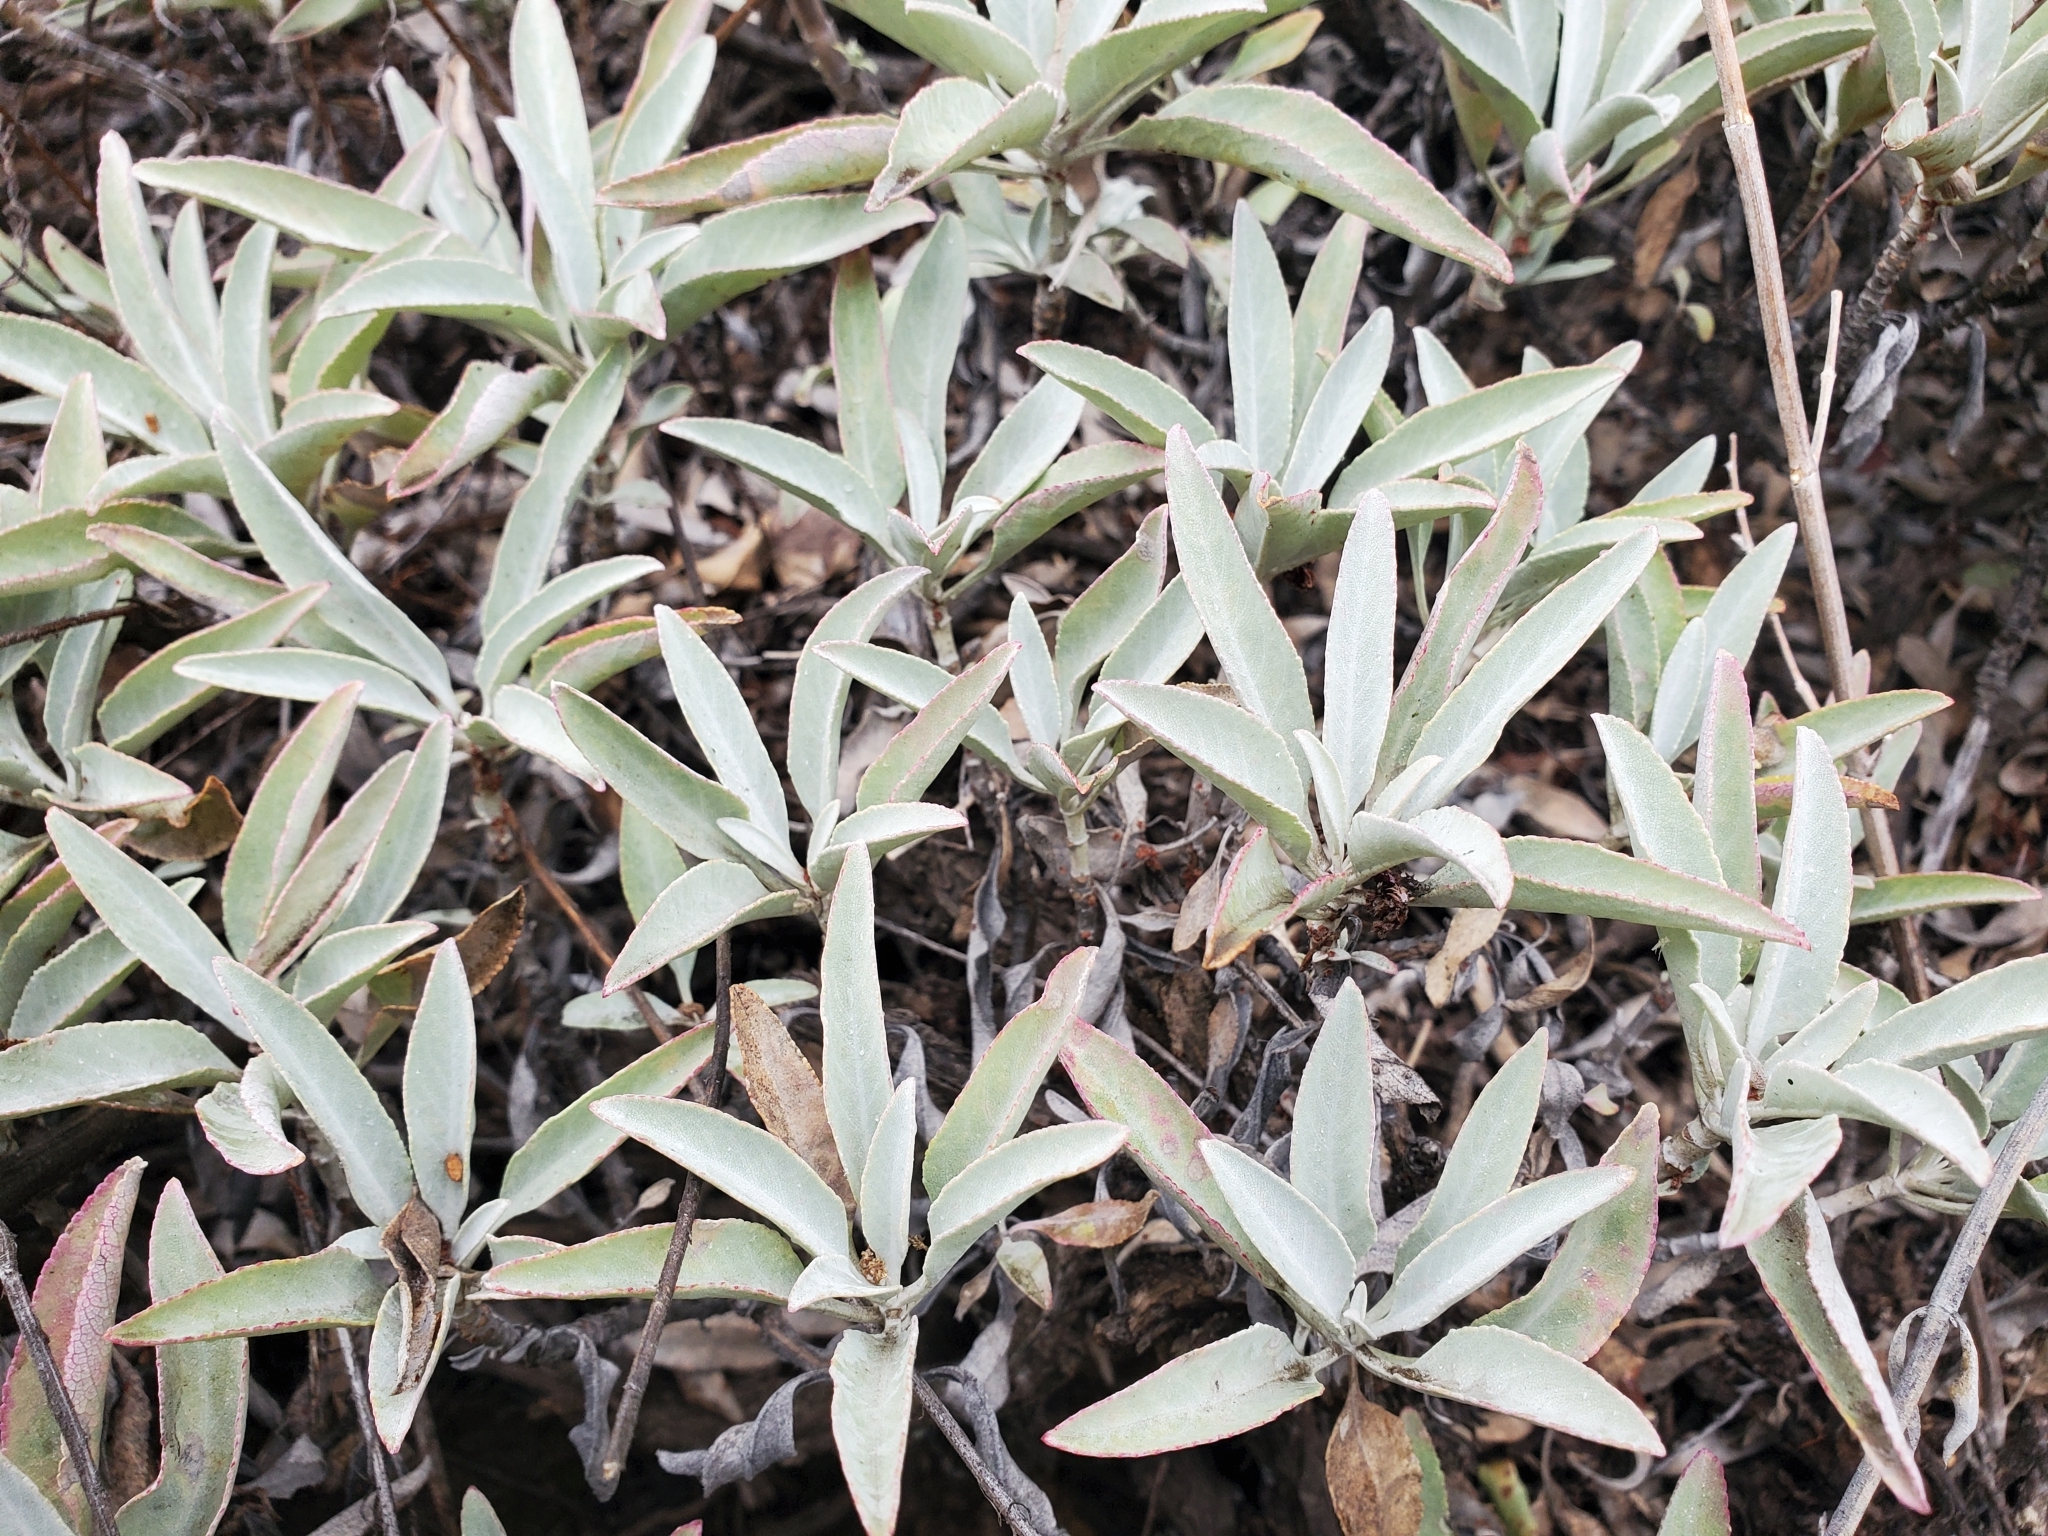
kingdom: Plantae
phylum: Tracheophyta
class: Magnoliopsida
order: Lamiales
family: Lamiaceae
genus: Salvia
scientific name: Salvia apiana
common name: White sage
